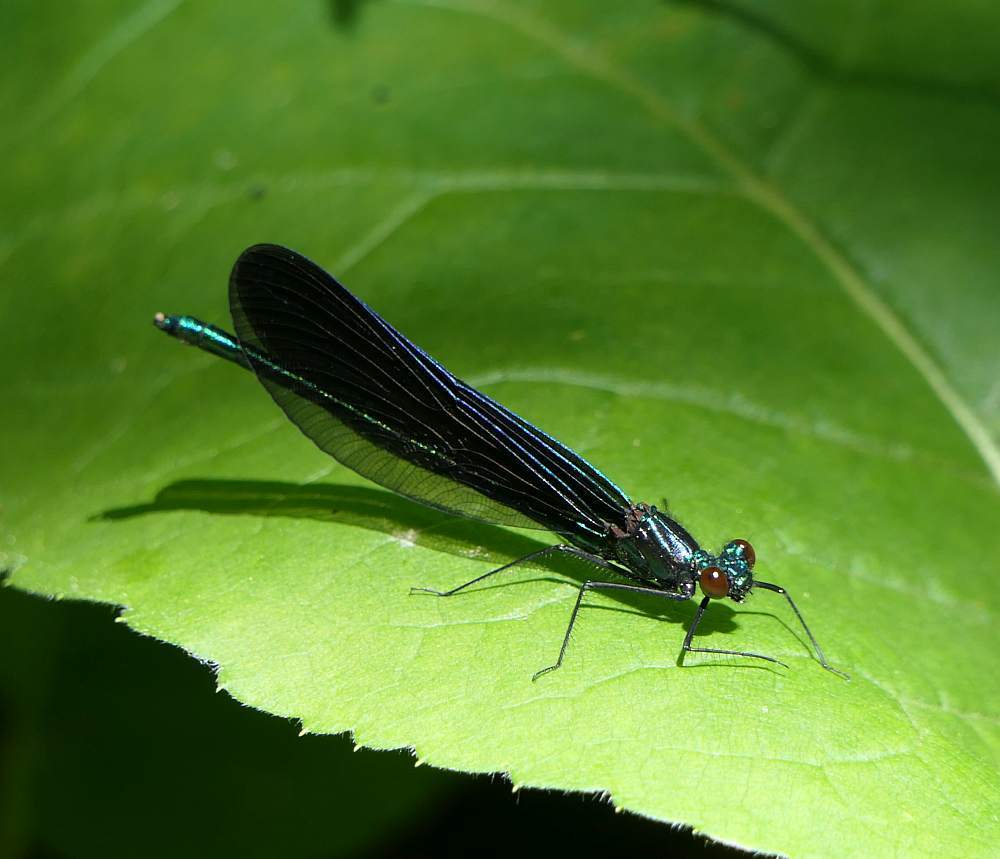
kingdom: Animalia
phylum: Arthropoda
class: Insecta
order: Odonata
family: Calopterygidae
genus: Calopteryx
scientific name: Calopteryx maculata
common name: Ebony jewelwing
